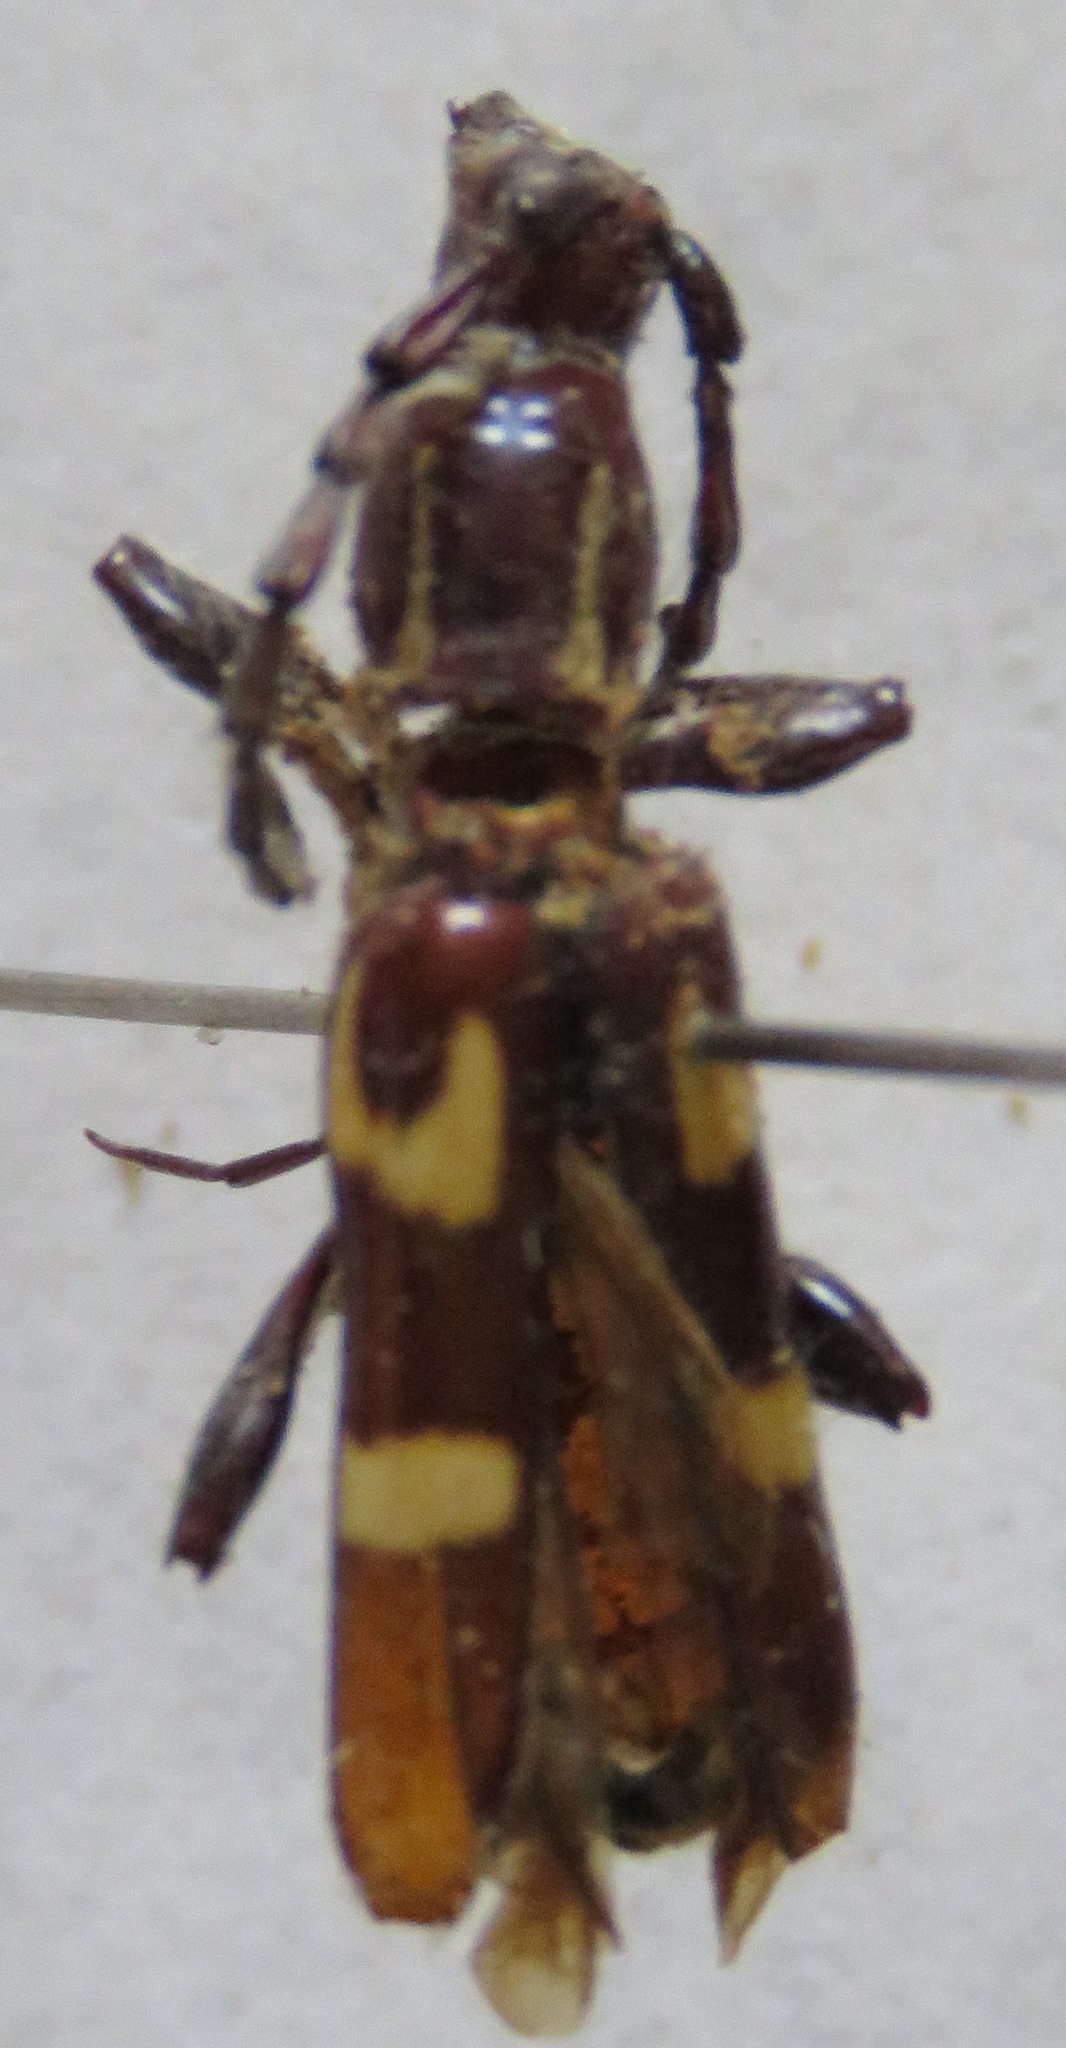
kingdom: Animalia
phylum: Arthropoda
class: Insecta
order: Coleoptera
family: Cerambycidae
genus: Platyarthron
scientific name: Platyarthron chilense
